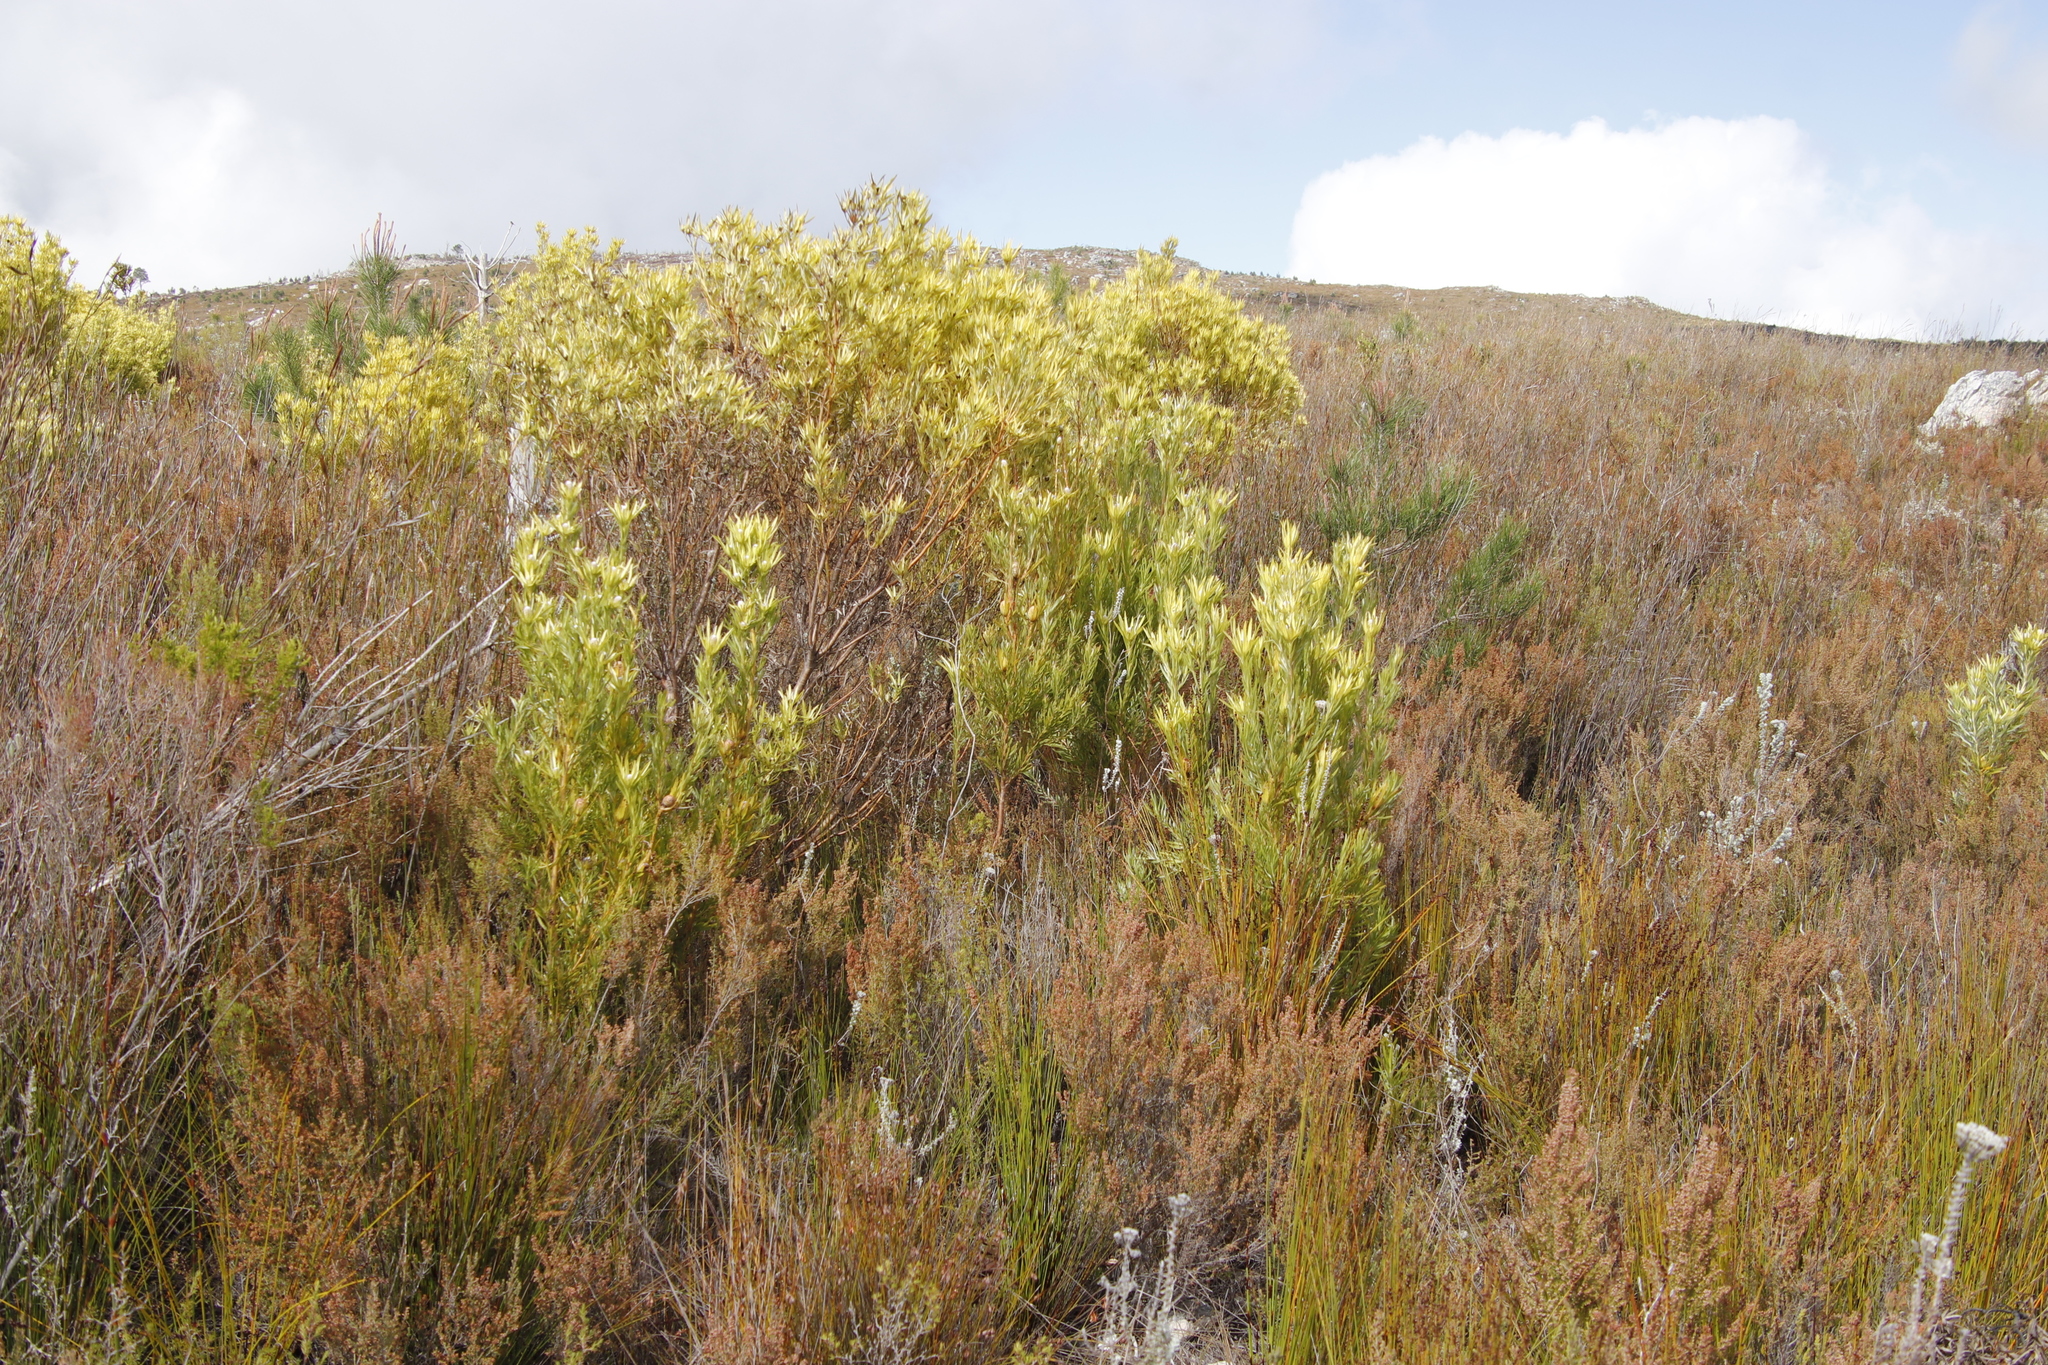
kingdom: Plantae
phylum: Tracheophyta
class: Magnoliopsida
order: Proteales
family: Proteaceae
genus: Leucadendron
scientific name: Leucadendron xanthoconus
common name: Sickle-leaf conebush
